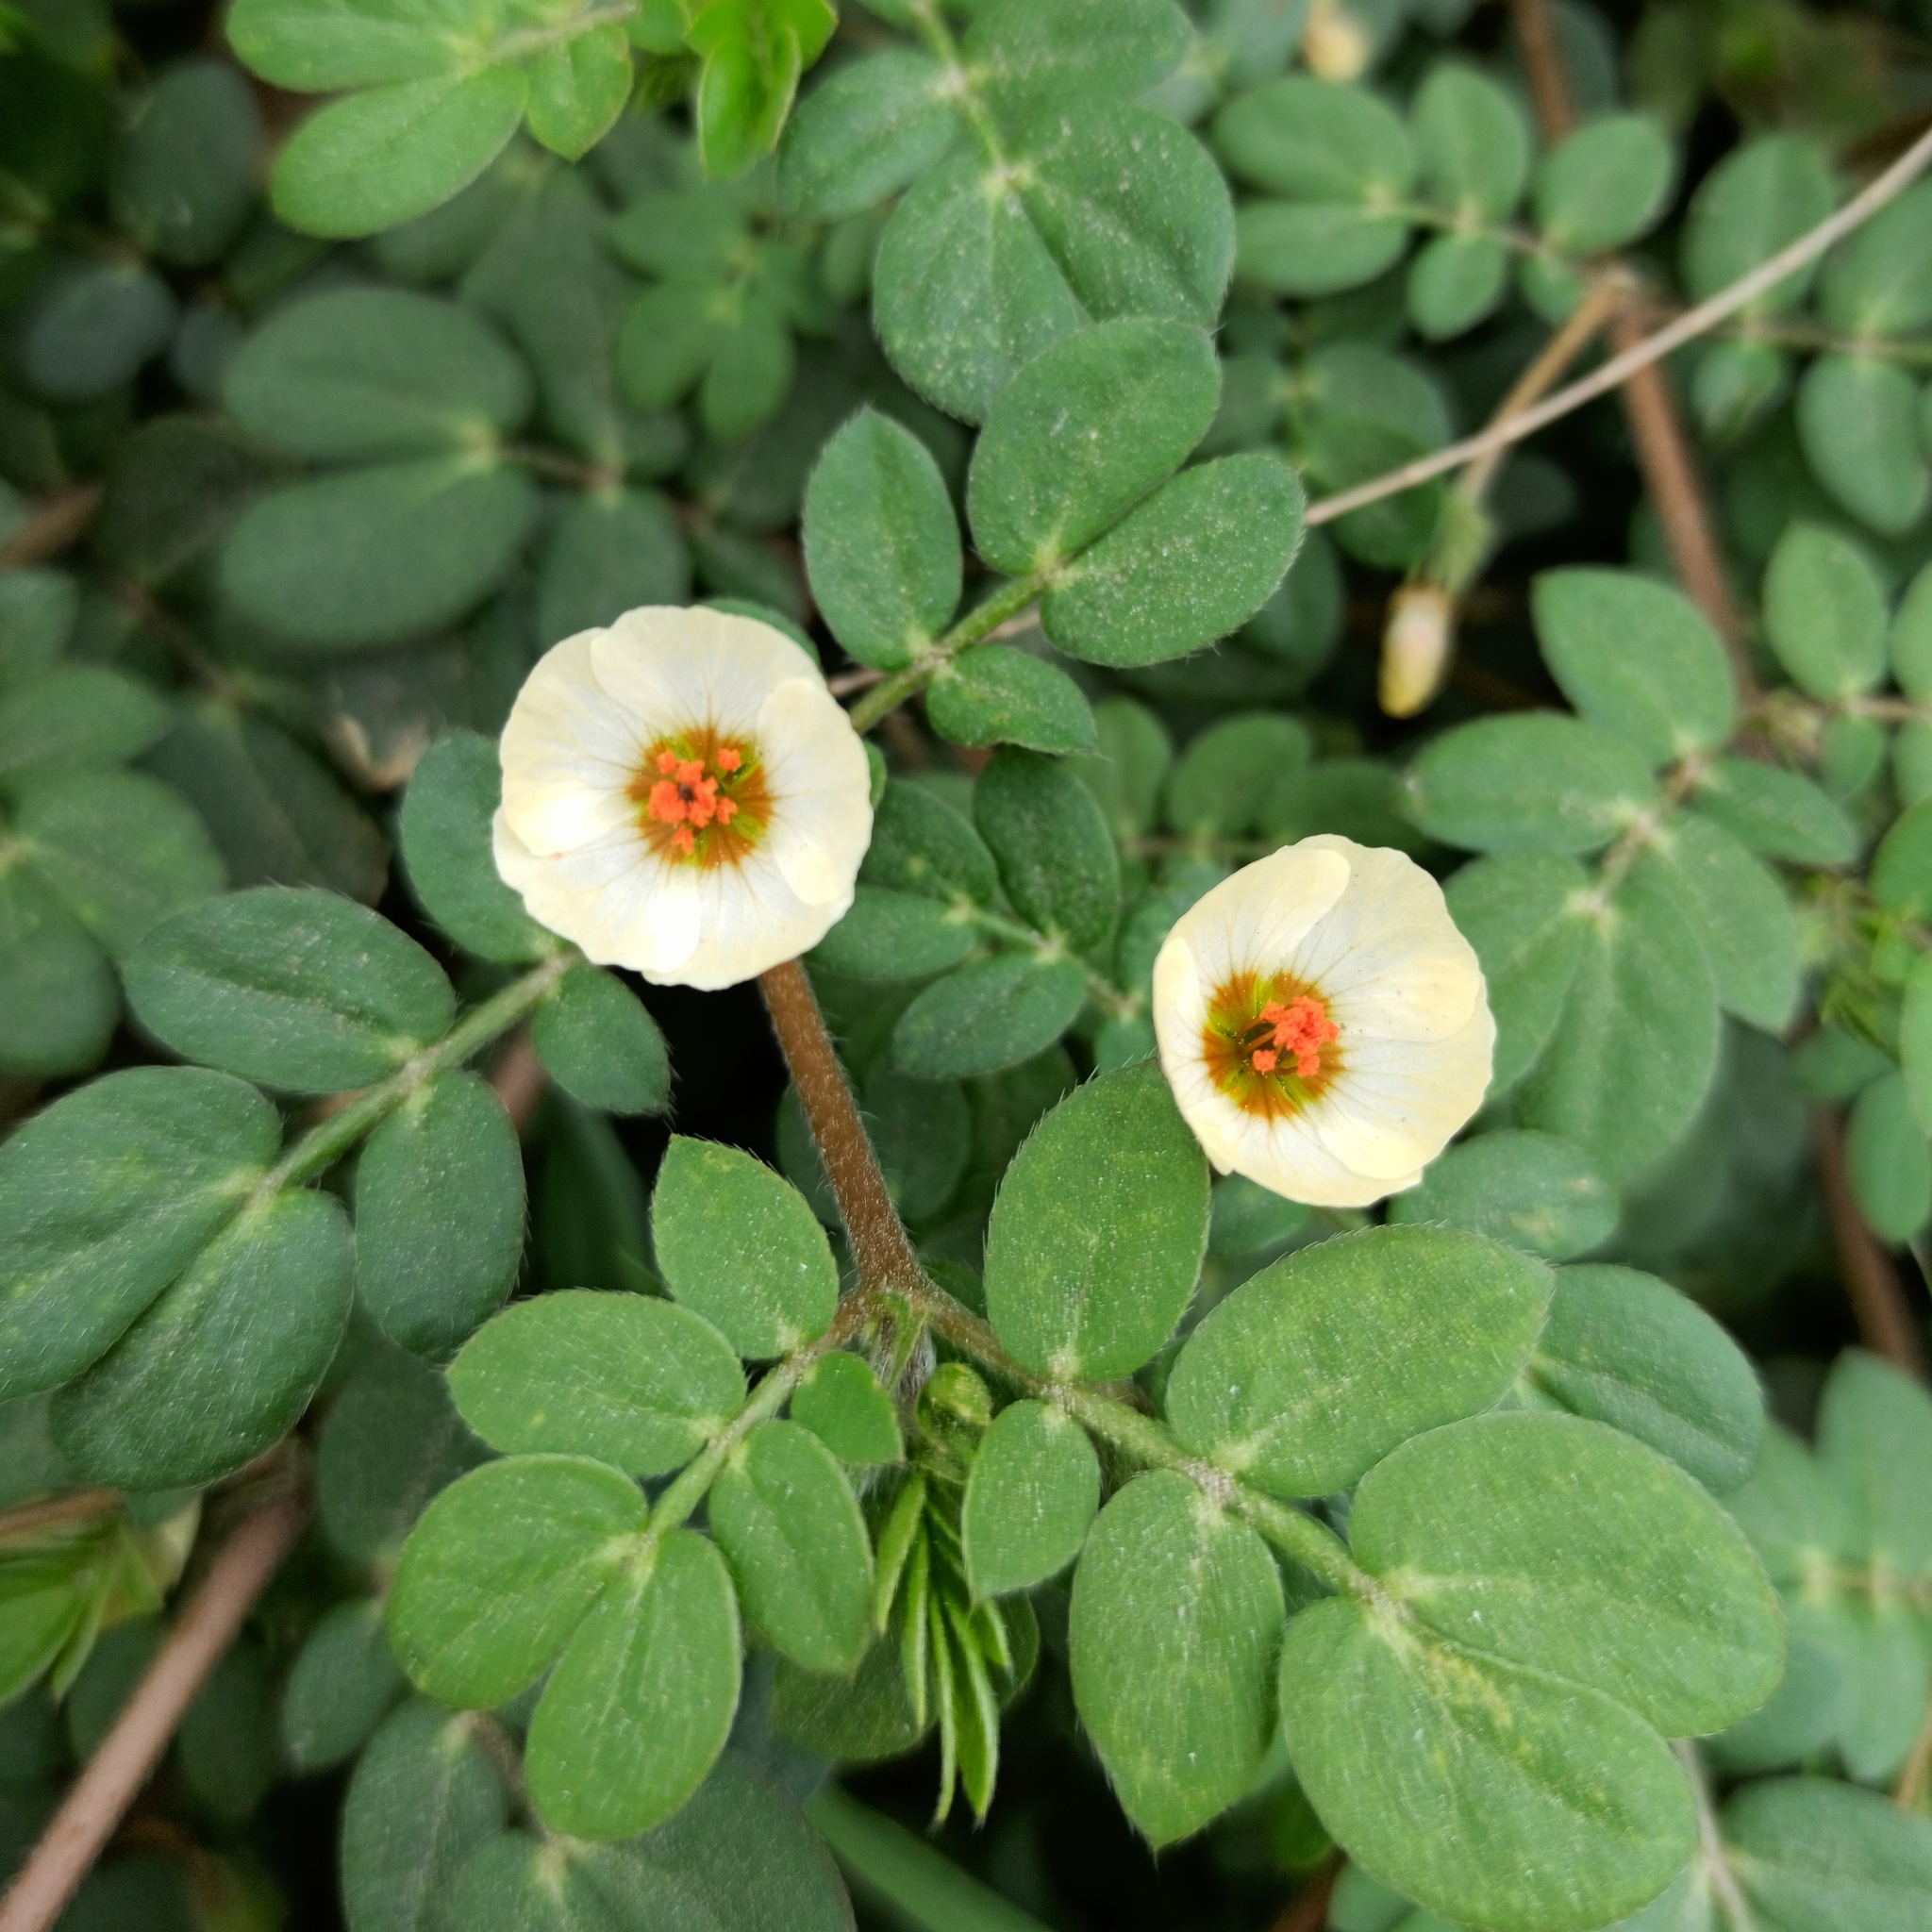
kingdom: Plantae
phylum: Tracheophyta
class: Magnoliopsida
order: Zygophyllales
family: Zygophyllaceae
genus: Kallstroemia
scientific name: Kallstroemia rosei
